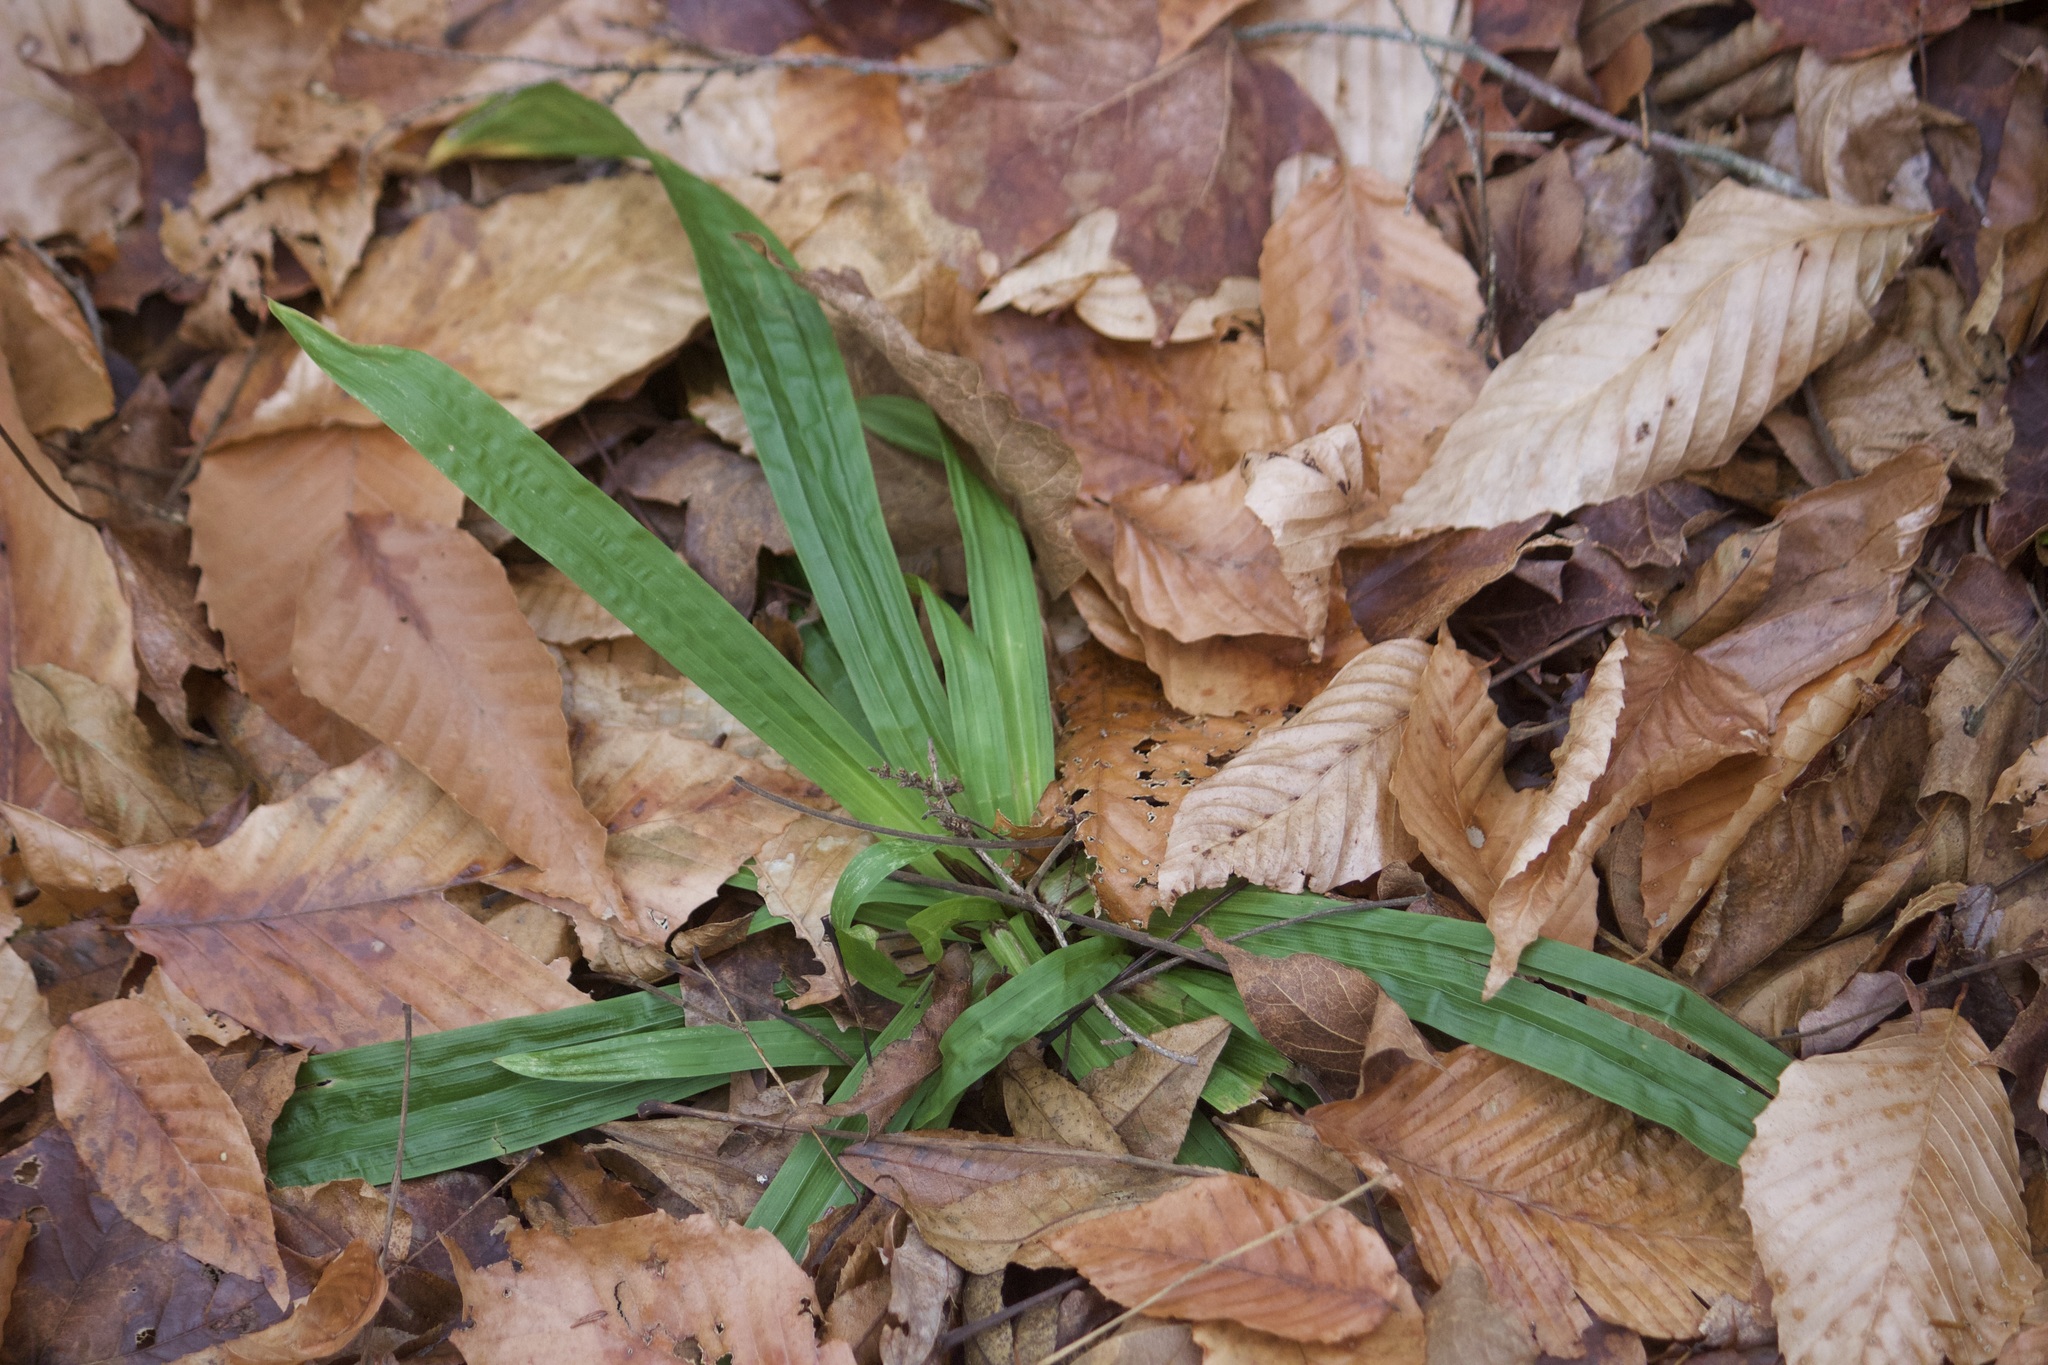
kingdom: Plantae
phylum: Tracheophyta
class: Liliopsida
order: Poales
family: Cyperaceae
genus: Carex
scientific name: Carex plantaginea
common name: Plantain-leaved sedge
